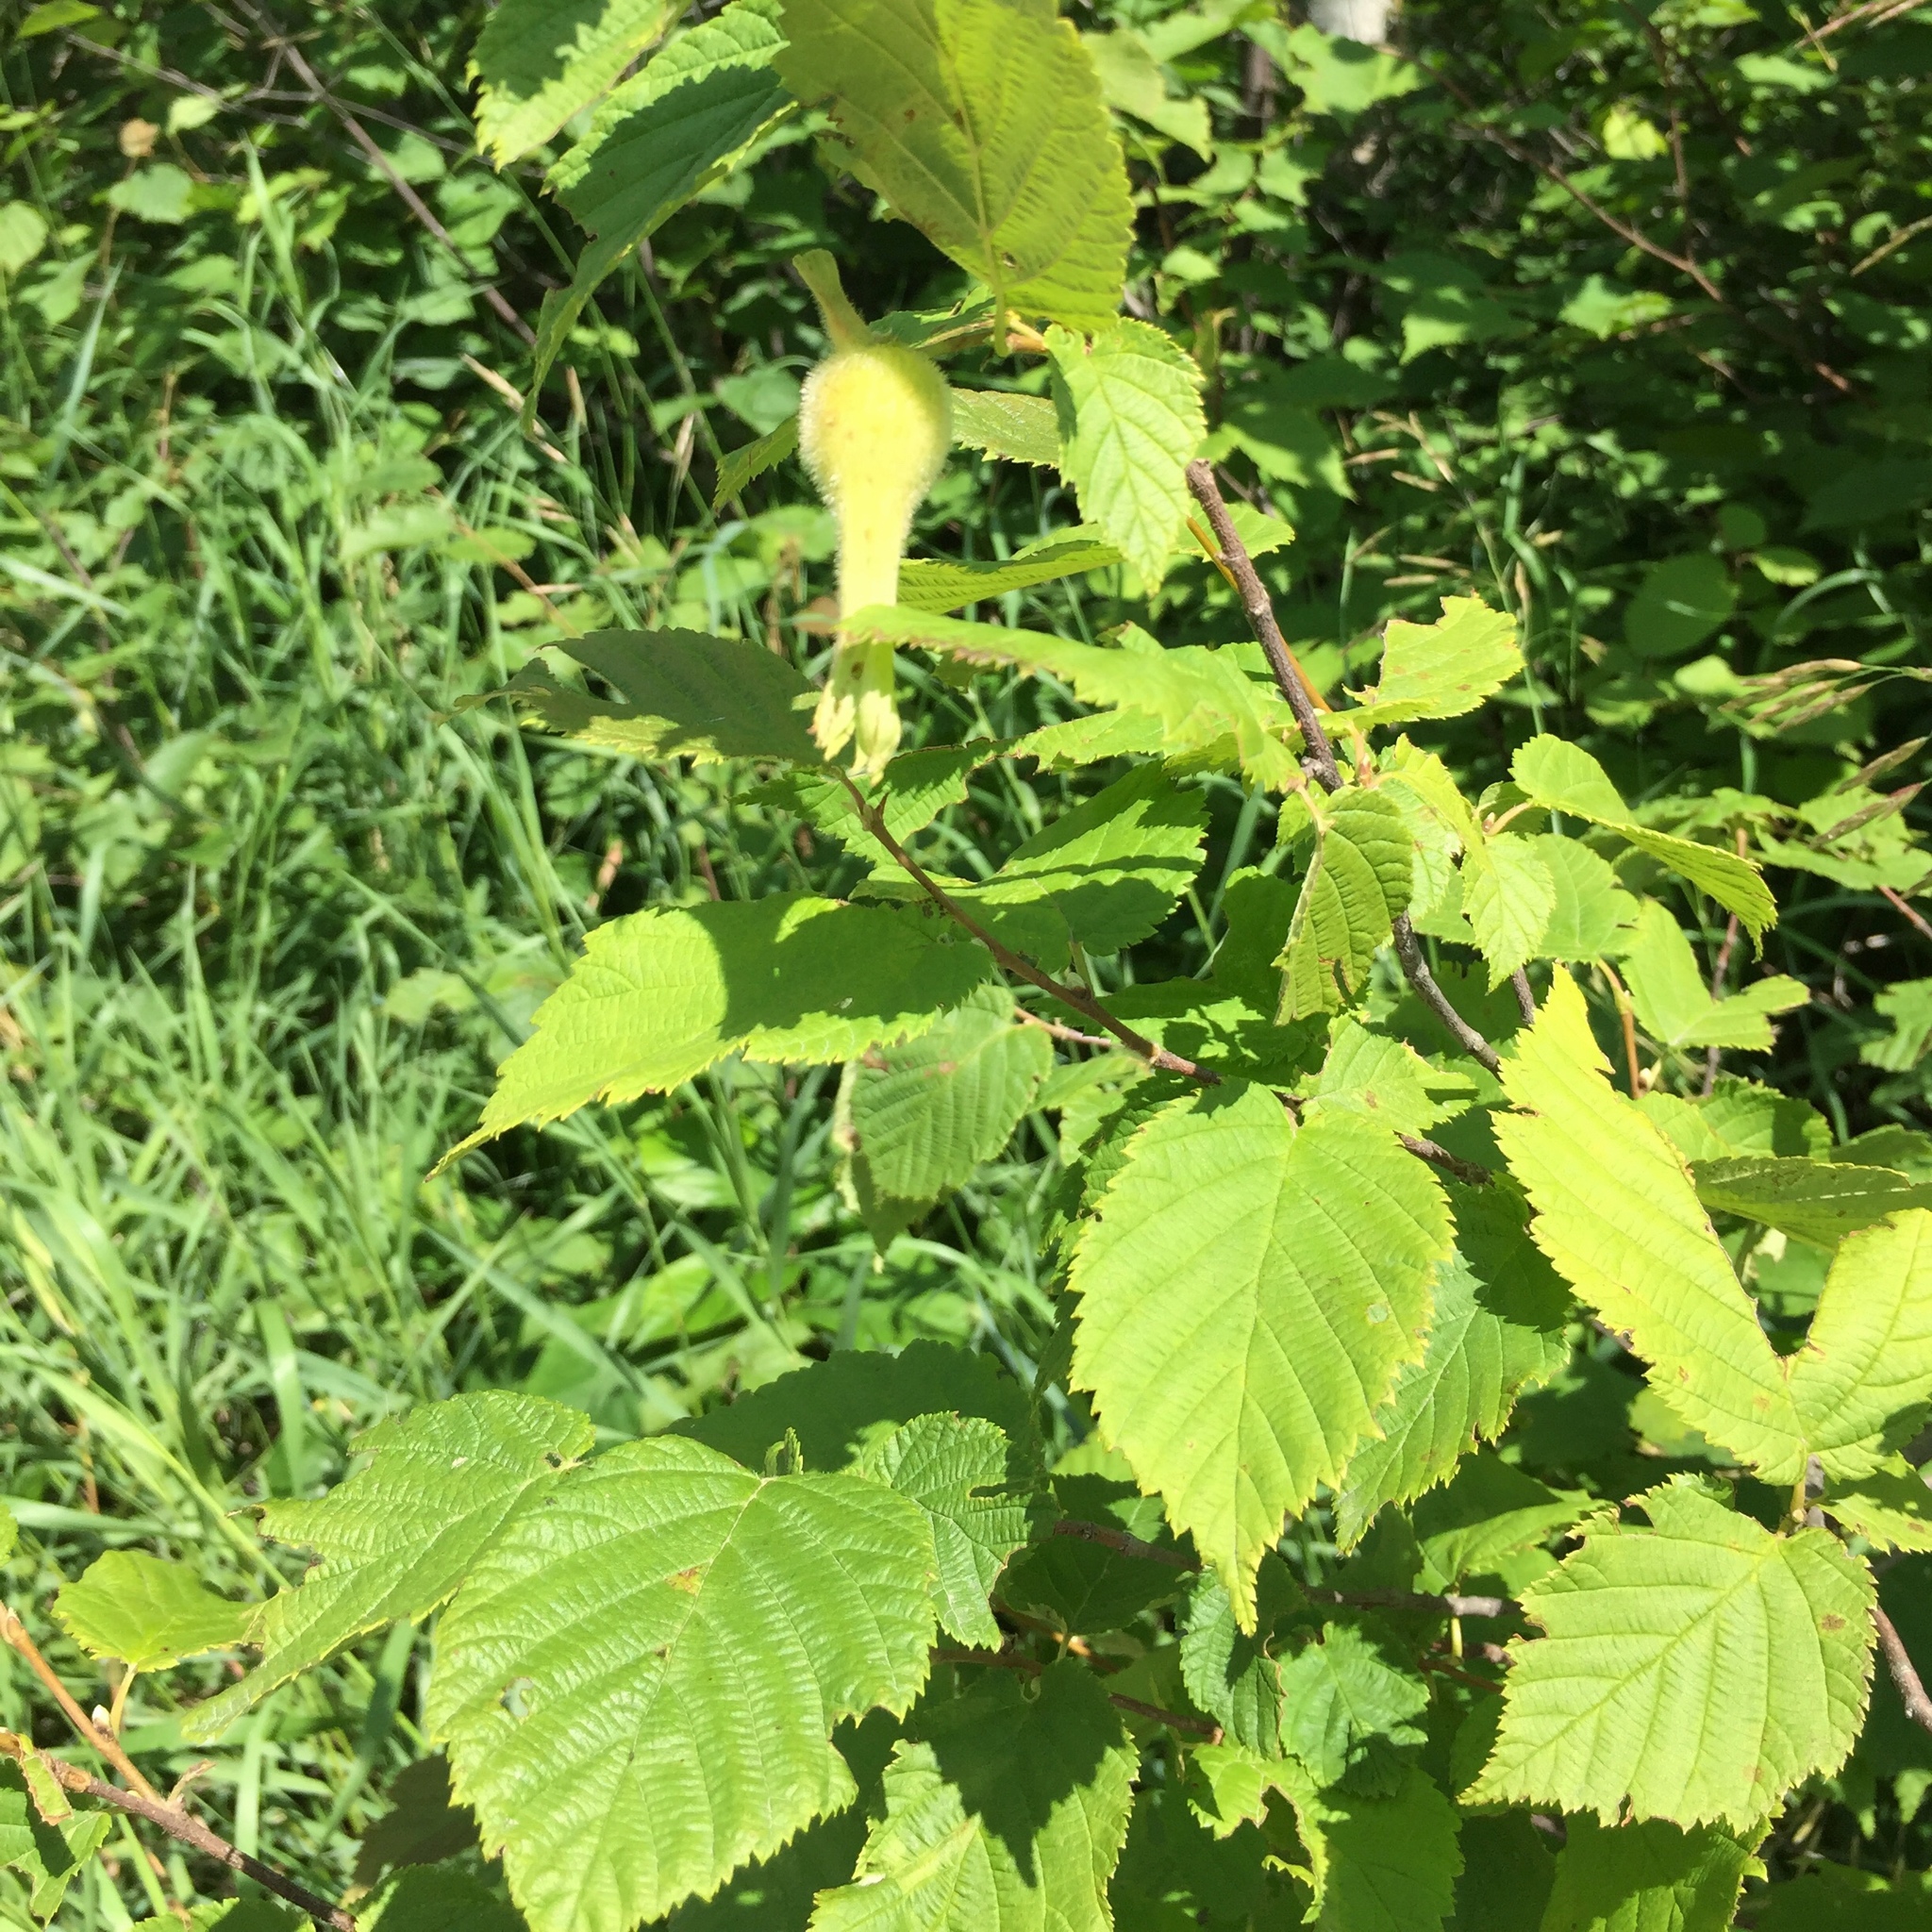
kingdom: Plantae
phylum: Tracheophyta
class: Magnoliopsida
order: Fagales
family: Betulaceae
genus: Corylus
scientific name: Corylus cornuta
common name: Beaked hazel
